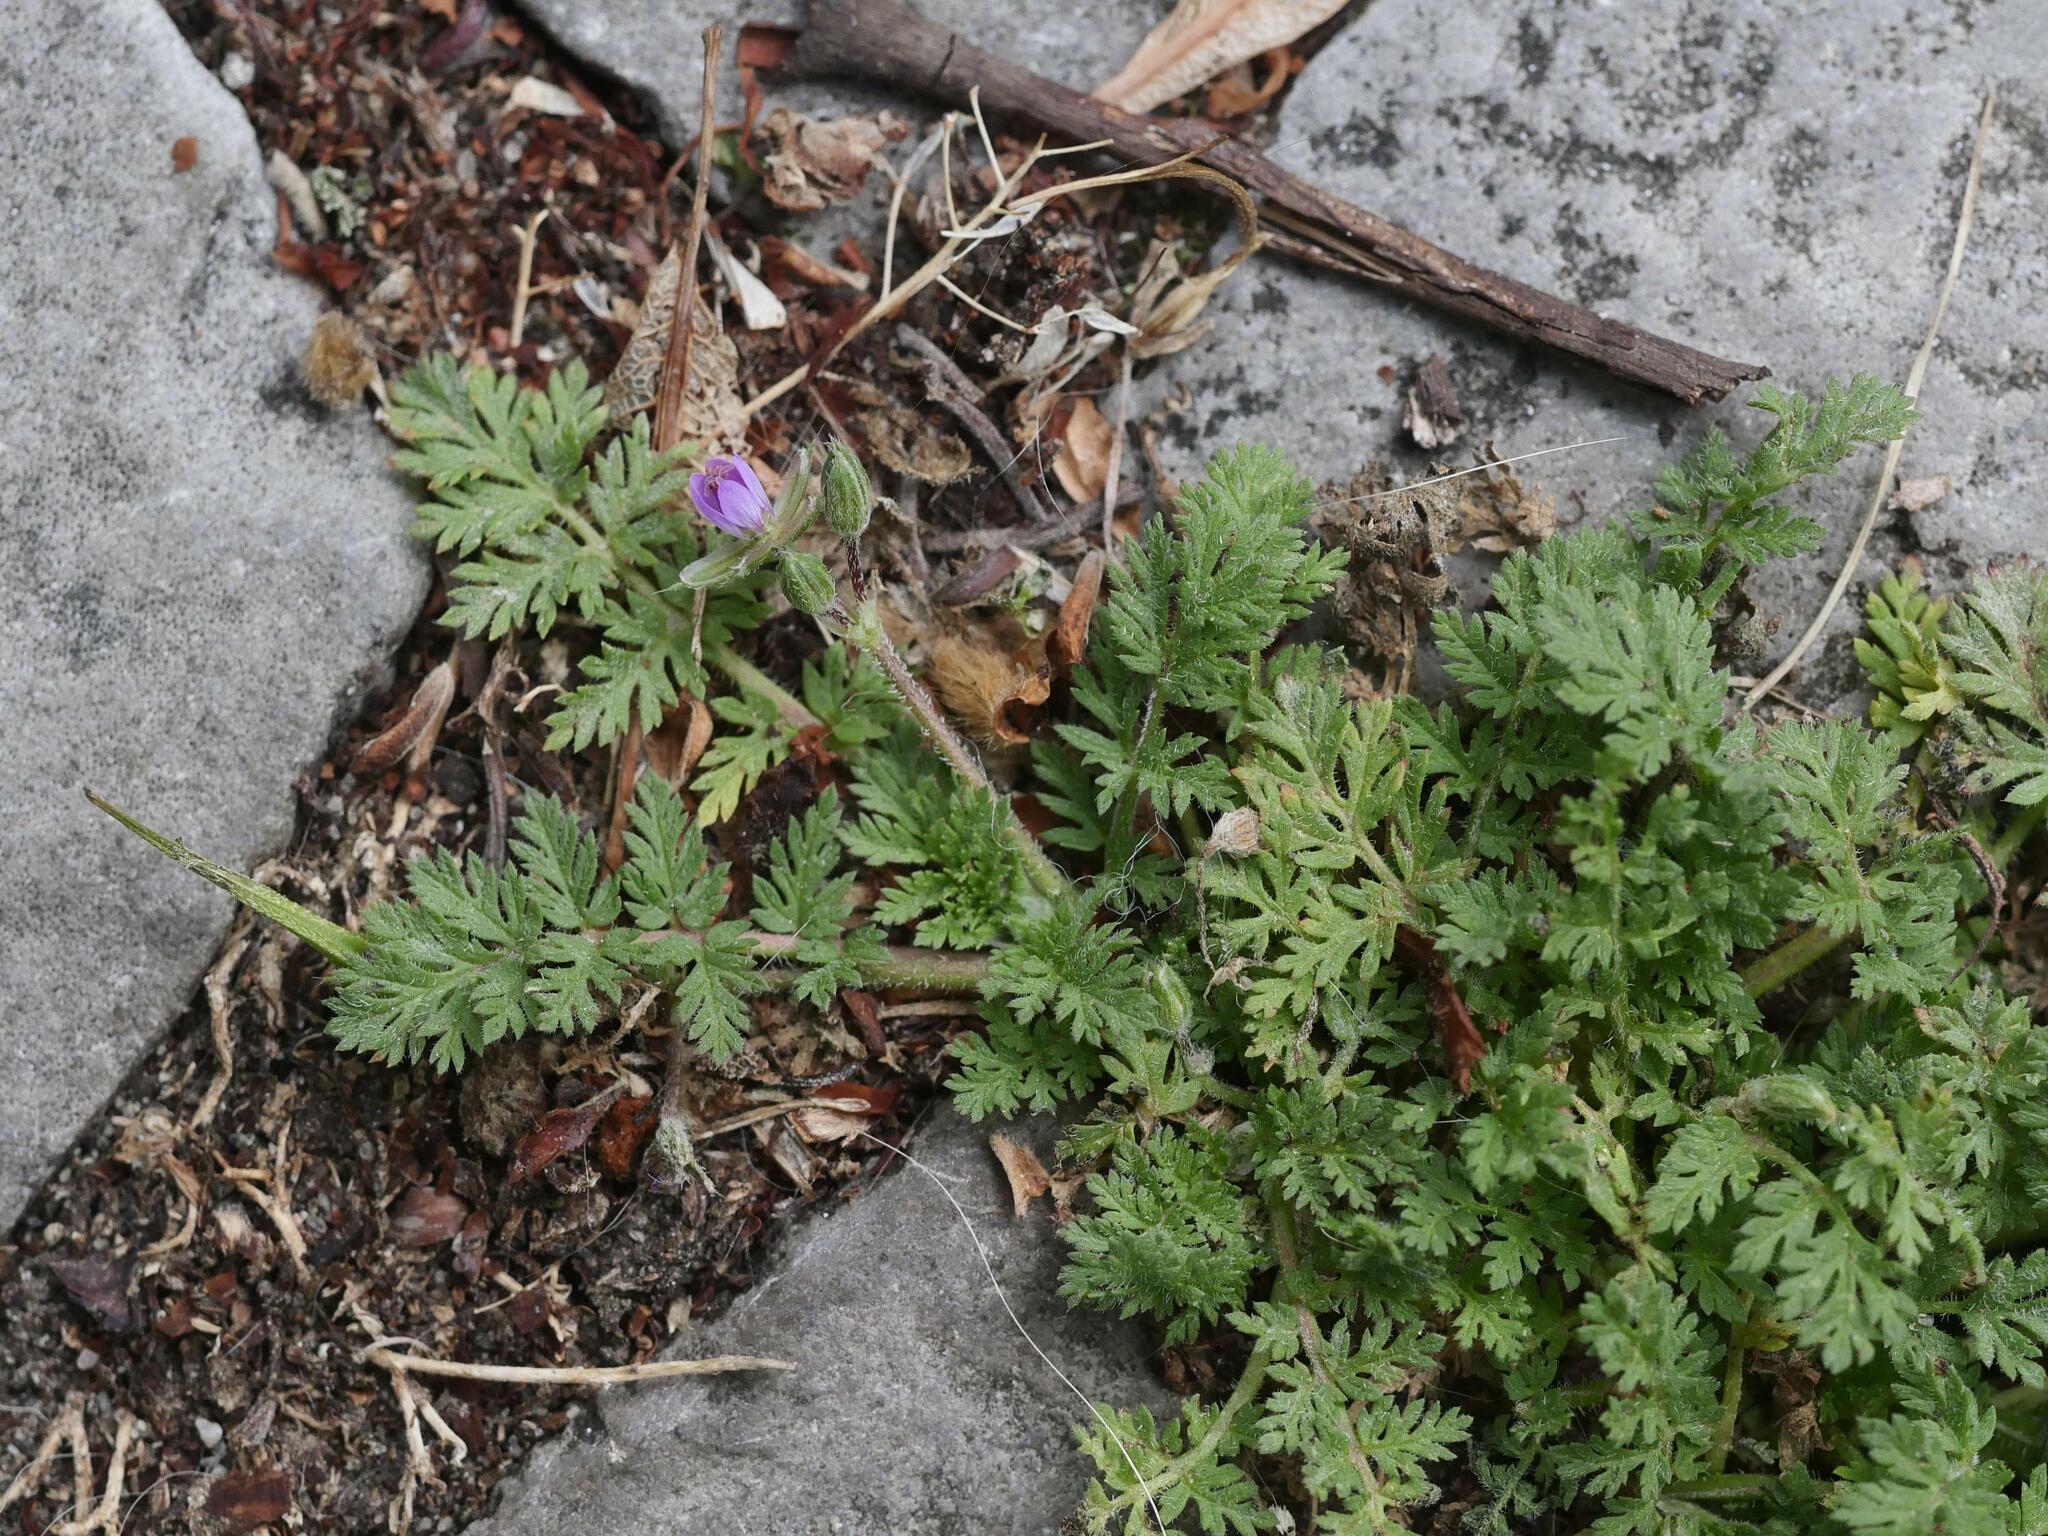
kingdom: Plantae
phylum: Tracheophyta
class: Magnoliopsida
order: Geraniales
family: Geraniaceae
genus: Erodium
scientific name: Erodium cicutarium
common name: Common stork's-bill
